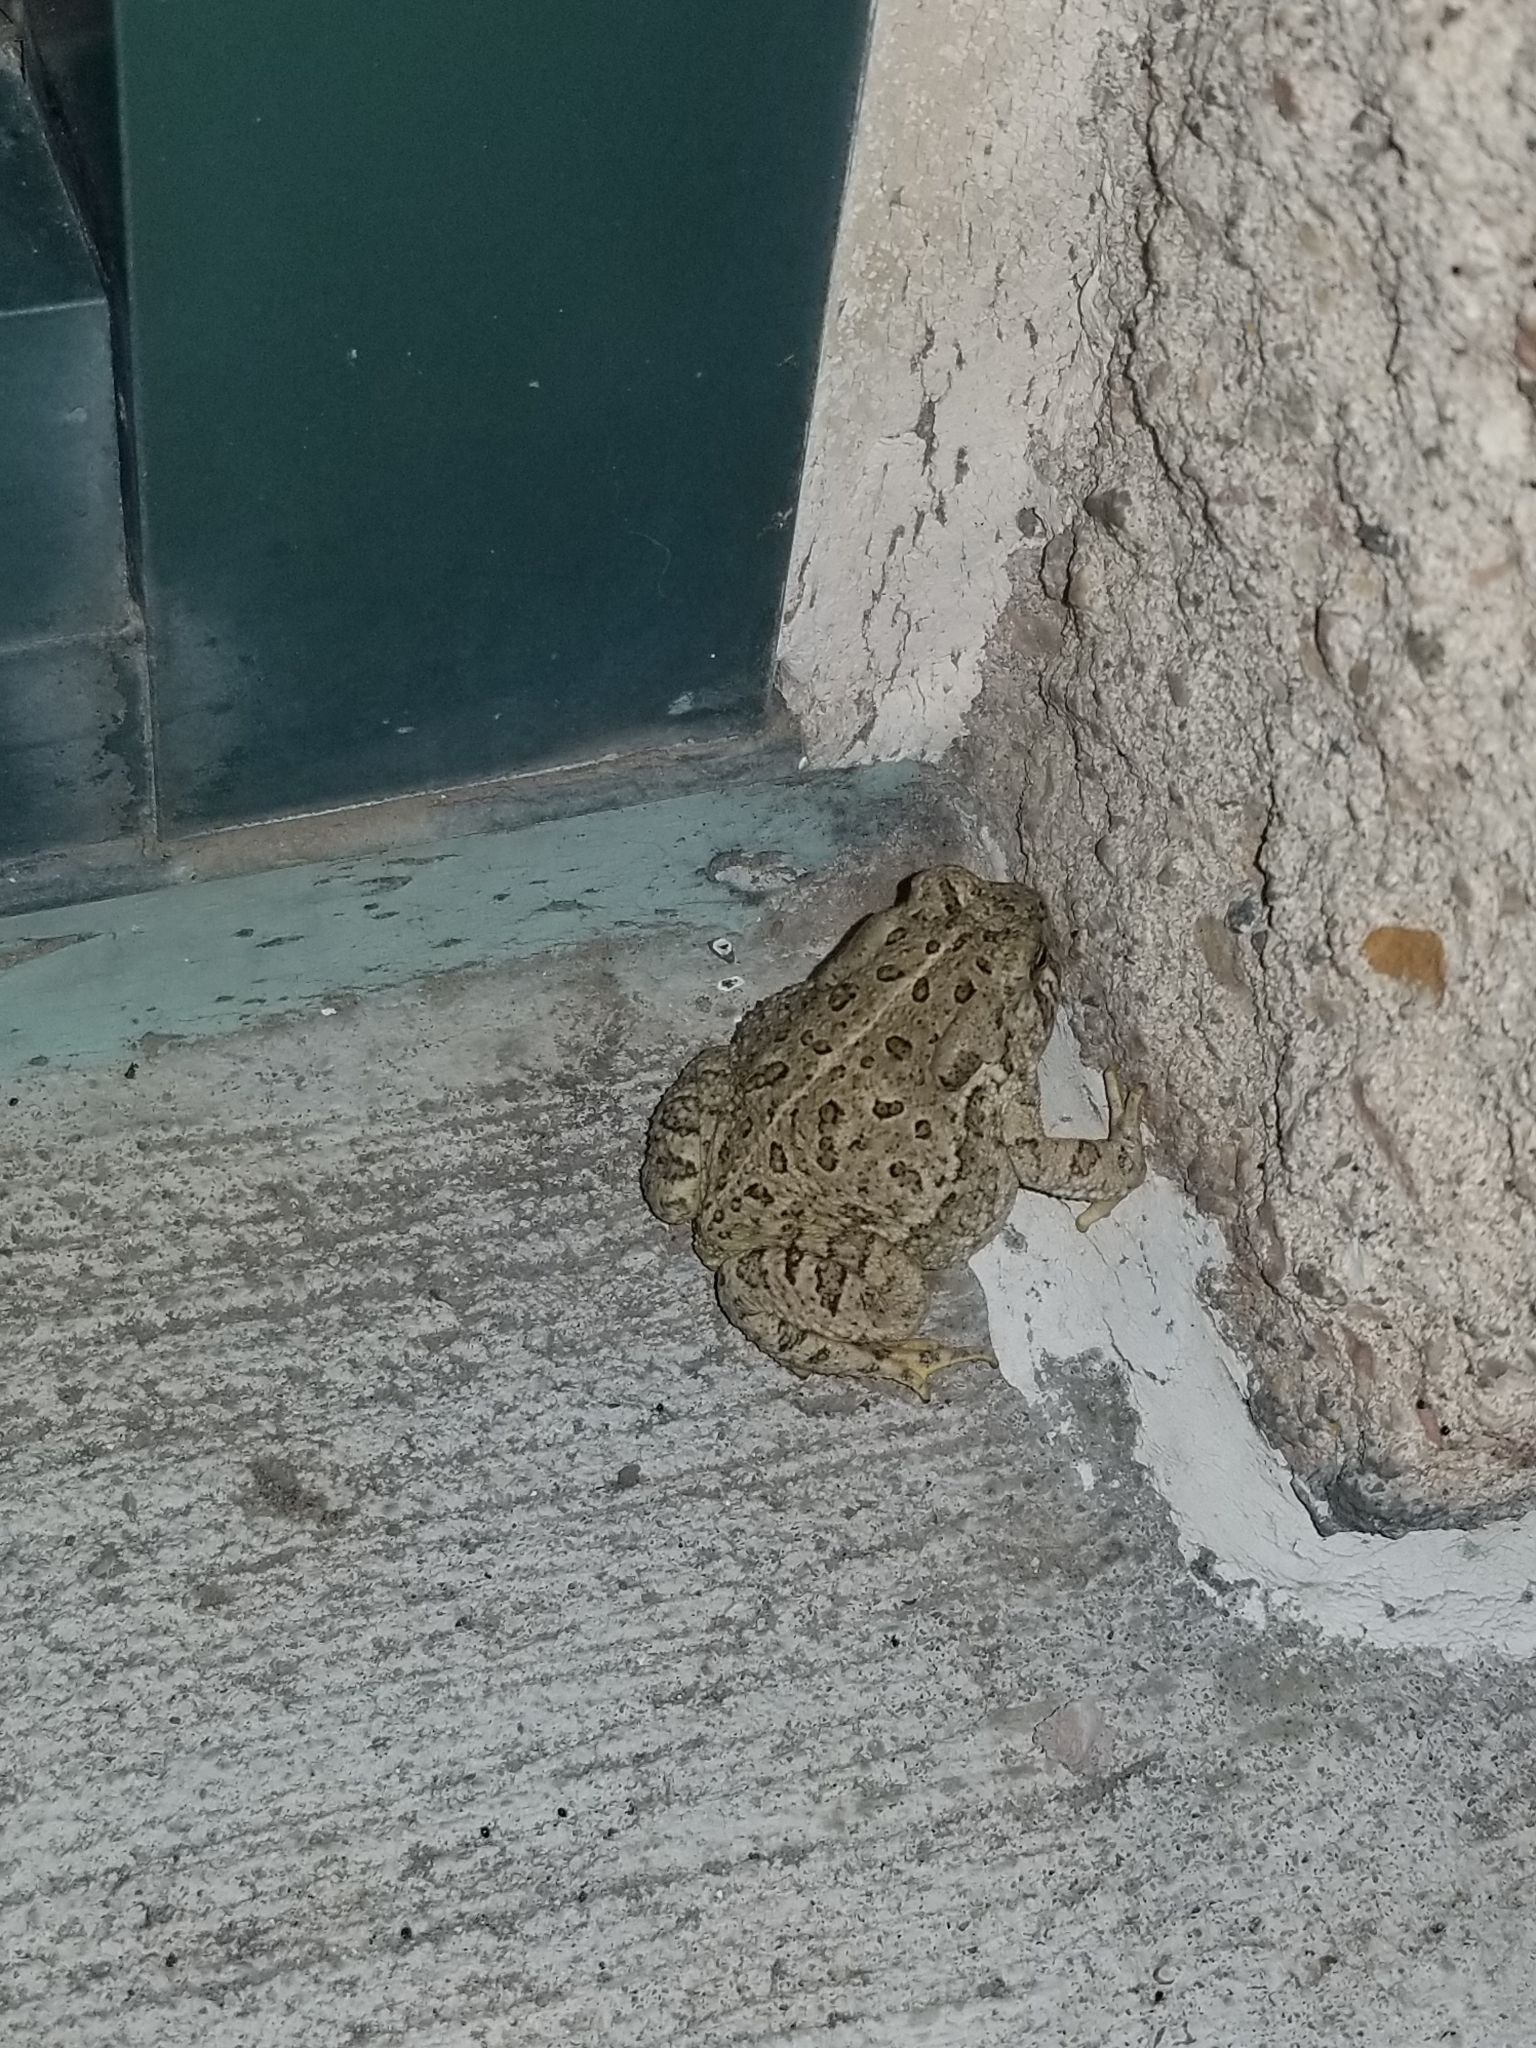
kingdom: Animalia
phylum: Chordata
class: Amphibia
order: Anura
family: Bufonidae
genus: Anaxyrus
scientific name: Anaxyrus woodhousii
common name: Woodhouse's toad
